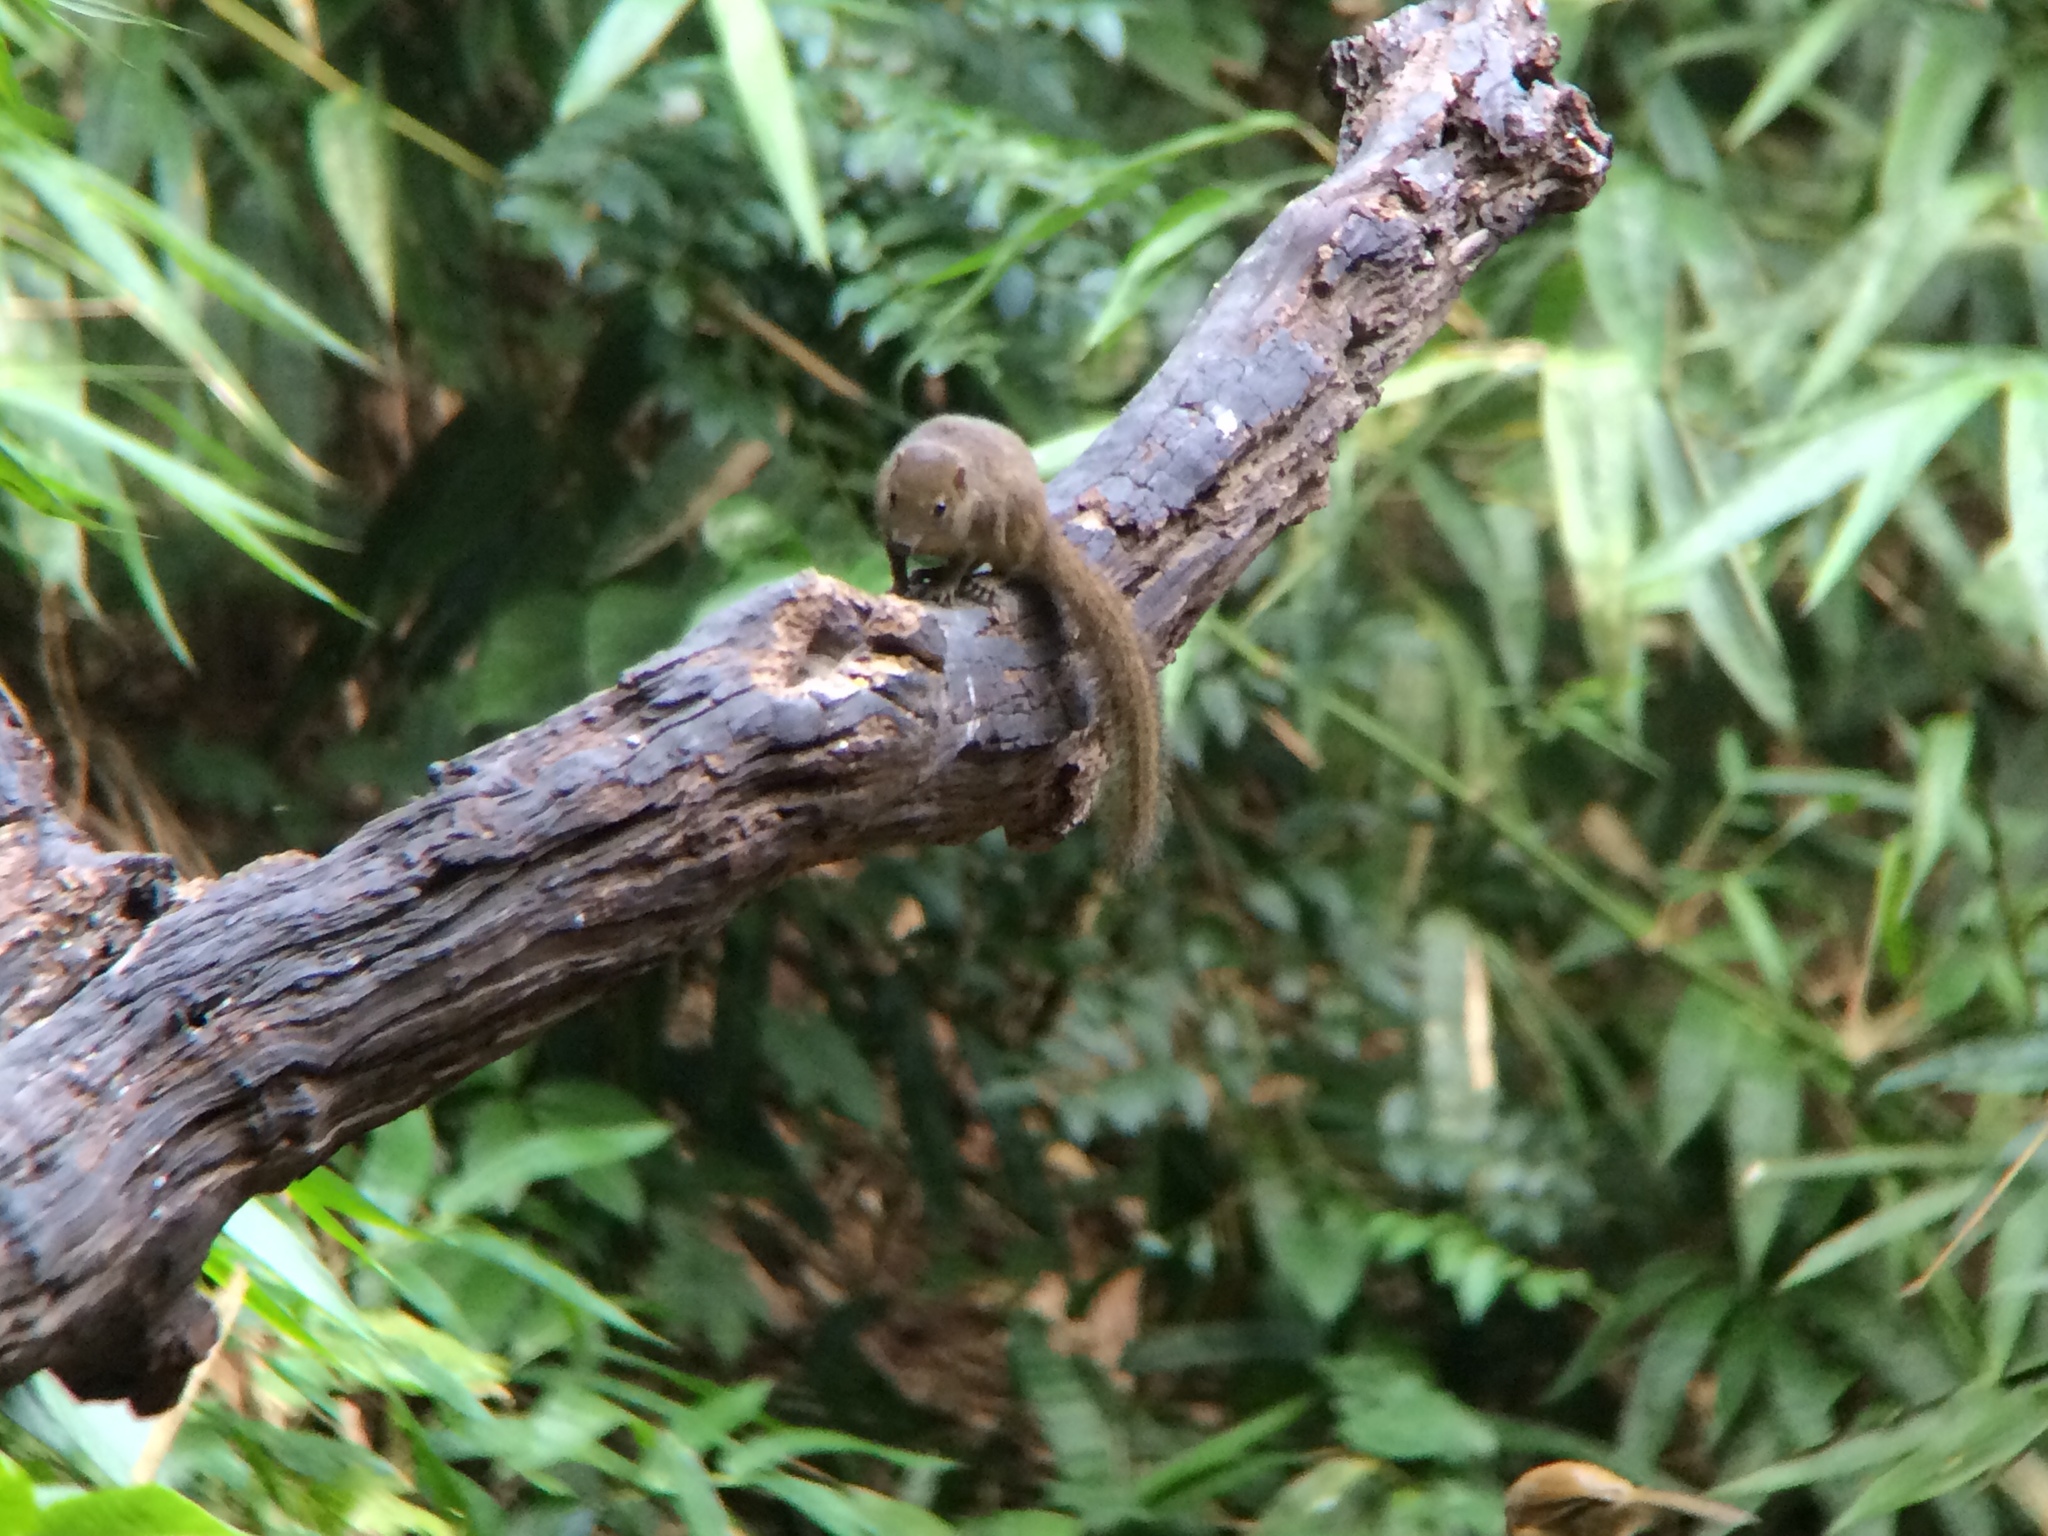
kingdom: Animalia
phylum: Chordata
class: Mammalia
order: Scandentia
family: Tupaiidae
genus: Tupaia
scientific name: Tupaia belangeri
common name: Northern treeshrew
